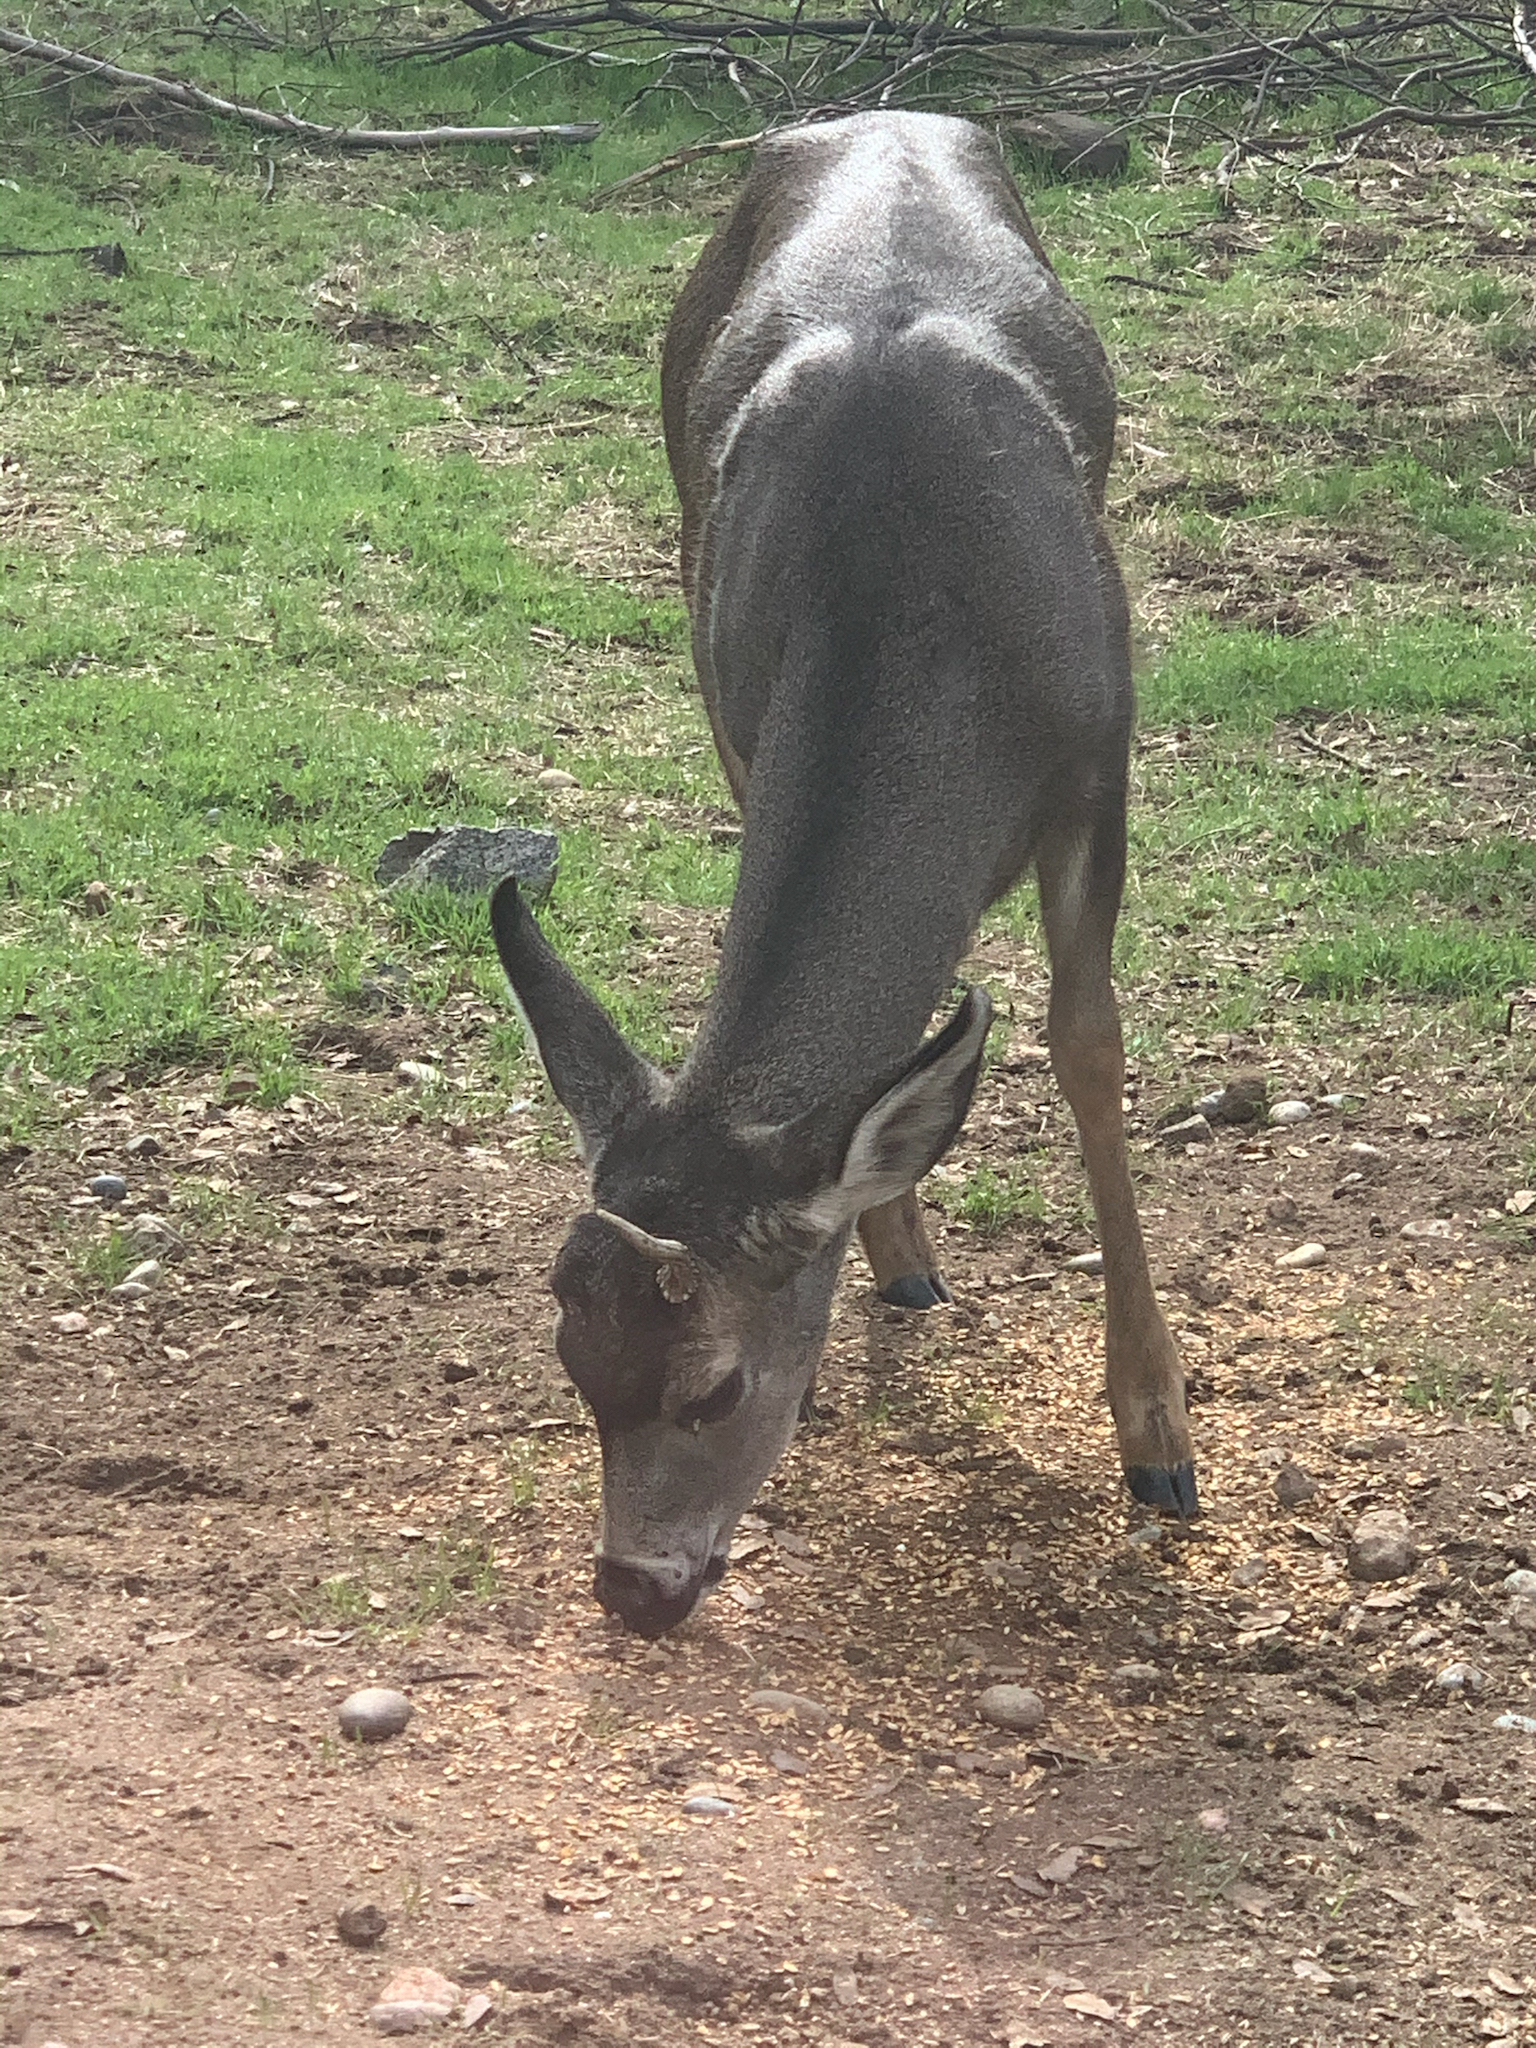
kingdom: Animalia
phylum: Chordata
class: Mammalia
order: Artiodactyla
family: Cervidae
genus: Odocoileus
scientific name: Odocoileus hemionus
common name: Mule deer
